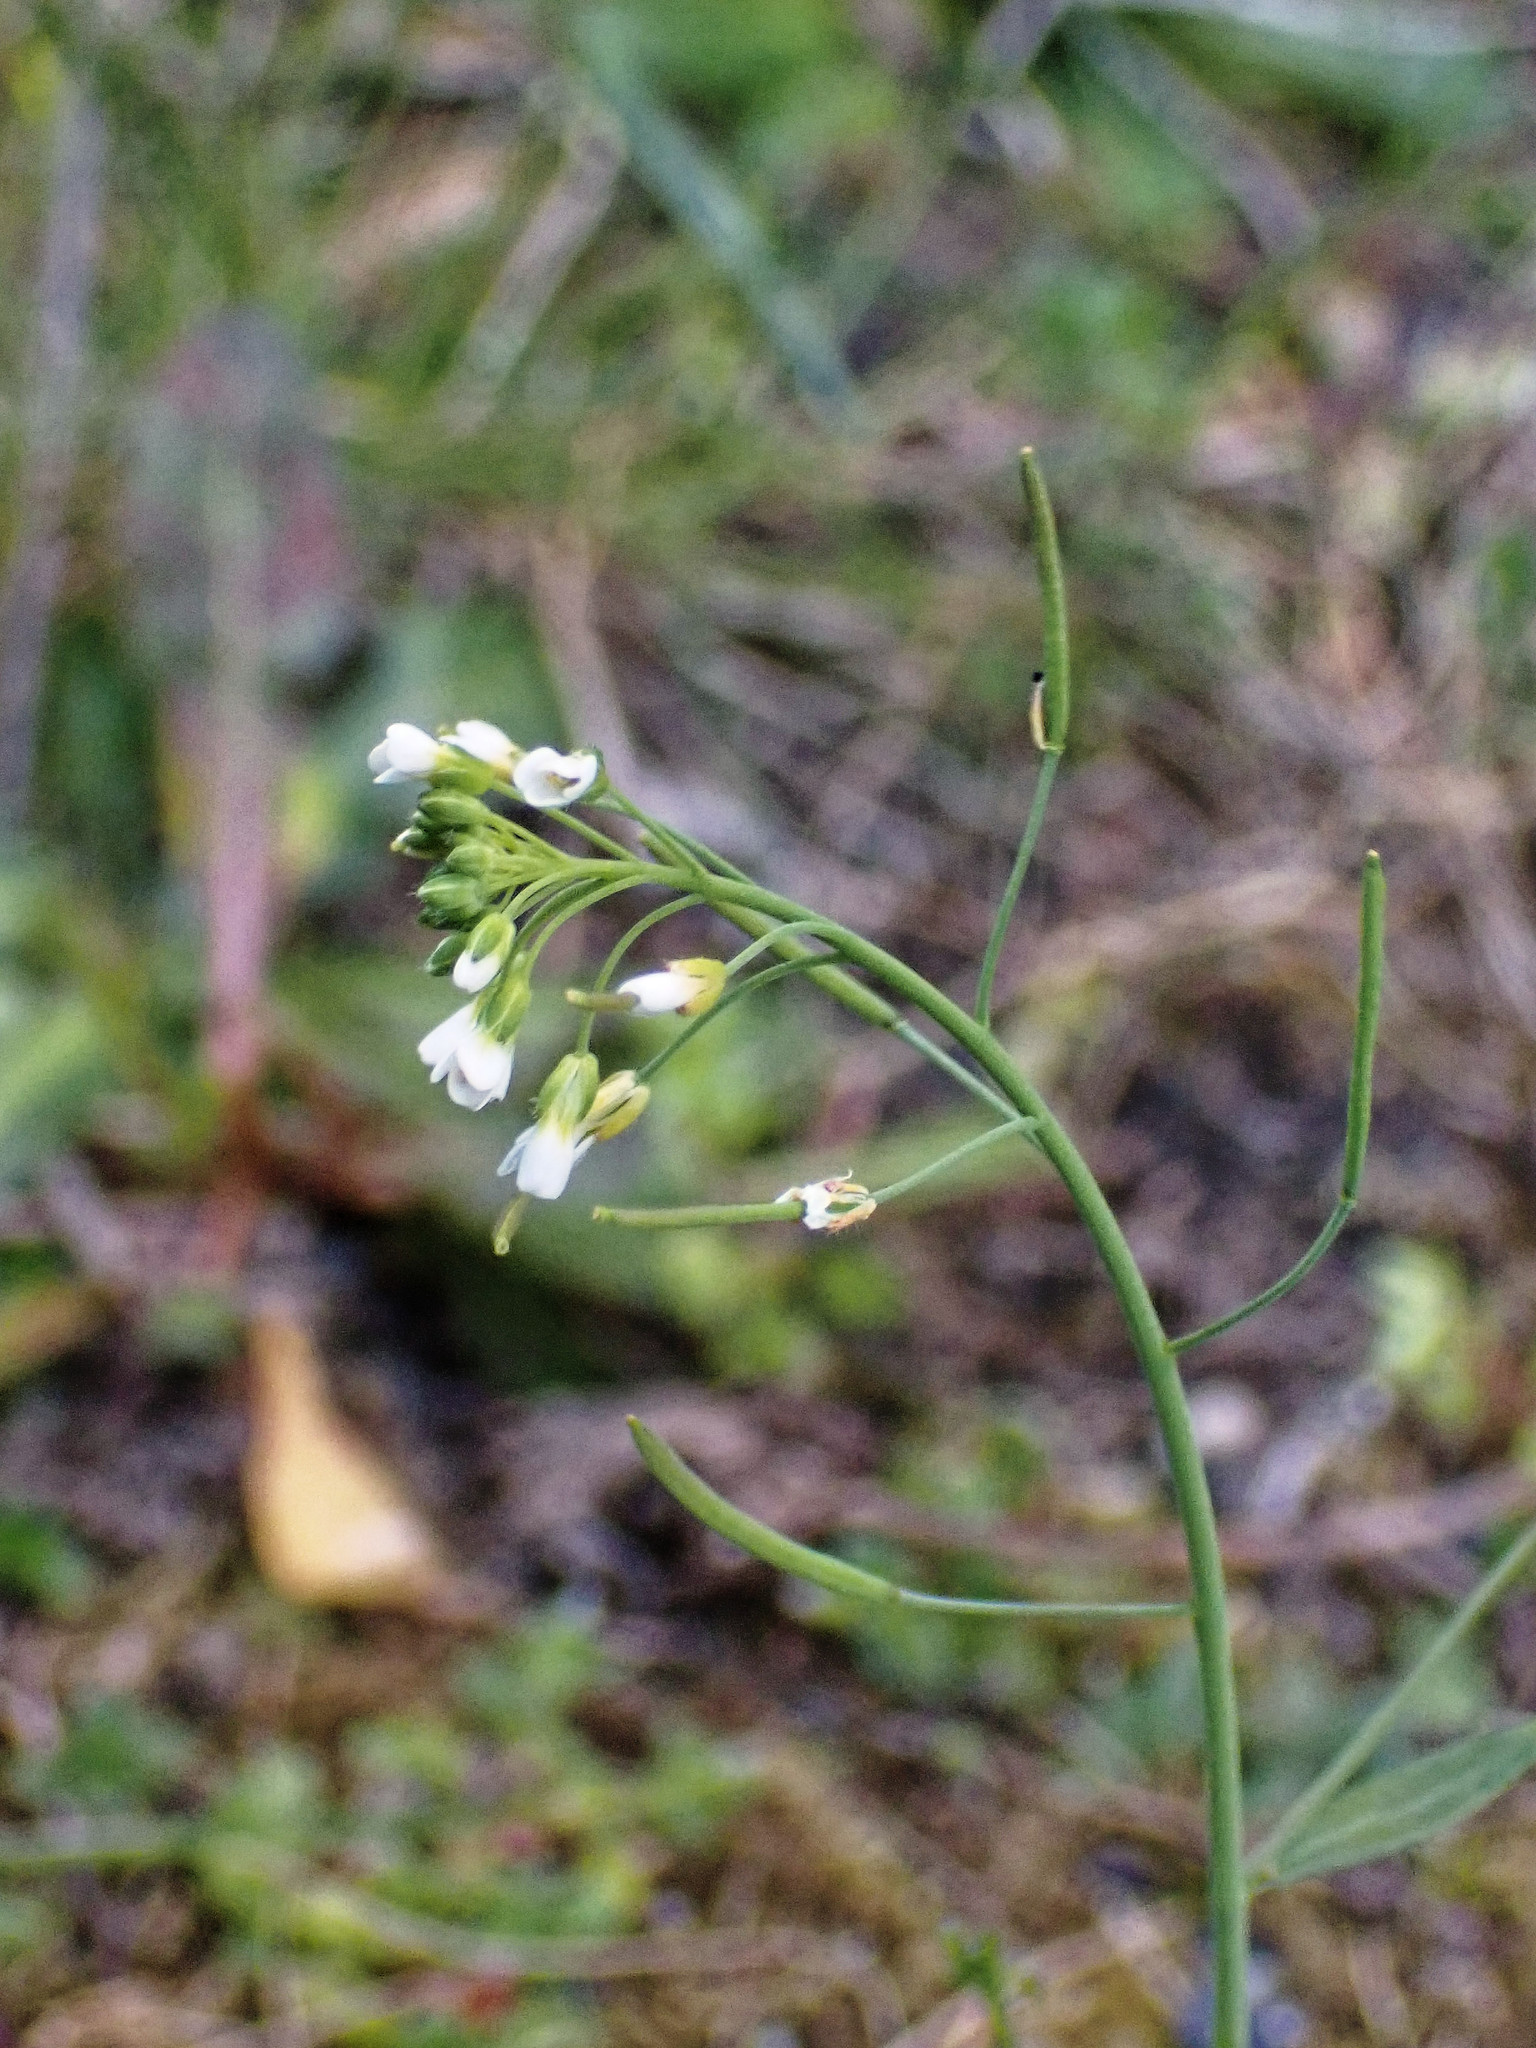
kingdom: Plantae
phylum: Tracheophyta
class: Magnoliopsida
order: Brassicales
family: Brassicaceae
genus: Arabidopsis
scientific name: Arabidopsis thaliana
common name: Thale cress
